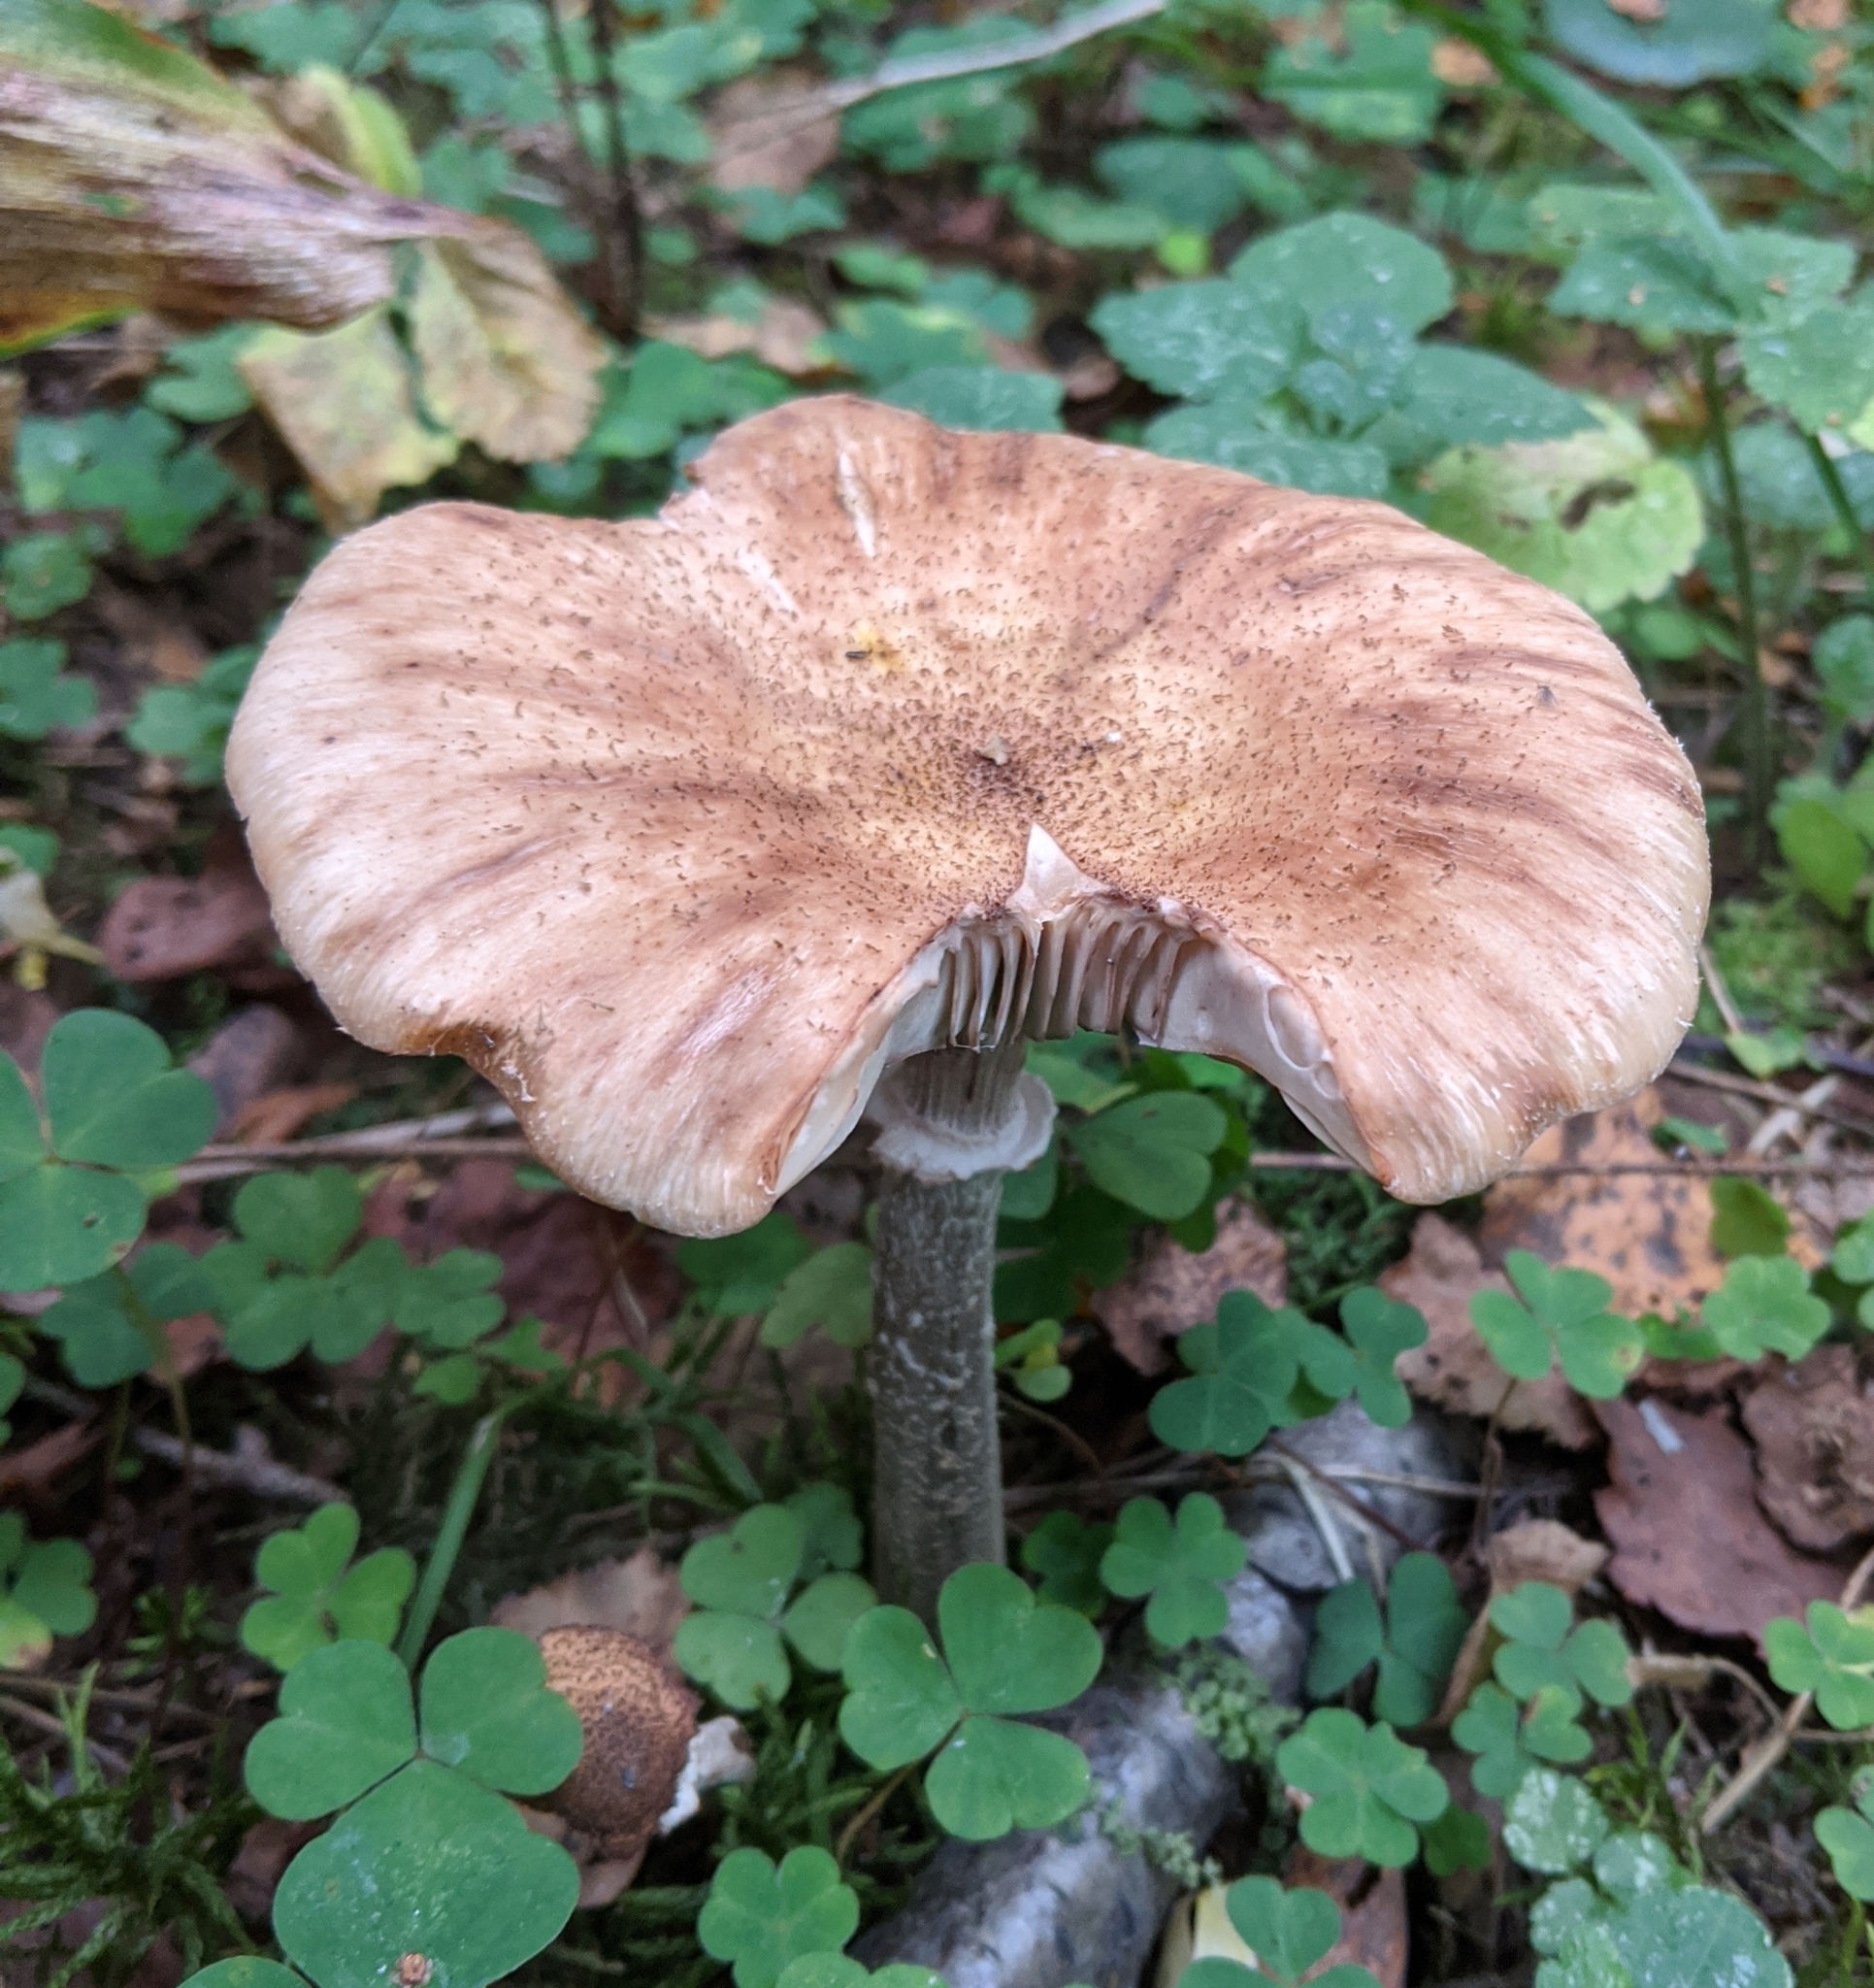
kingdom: Fungi
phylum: Basidiomycota
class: Agaricomycetes
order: Agaricales
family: Physalacriaceae
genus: Armillaria
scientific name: Armillaria borealis
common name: Northern honey fungus
